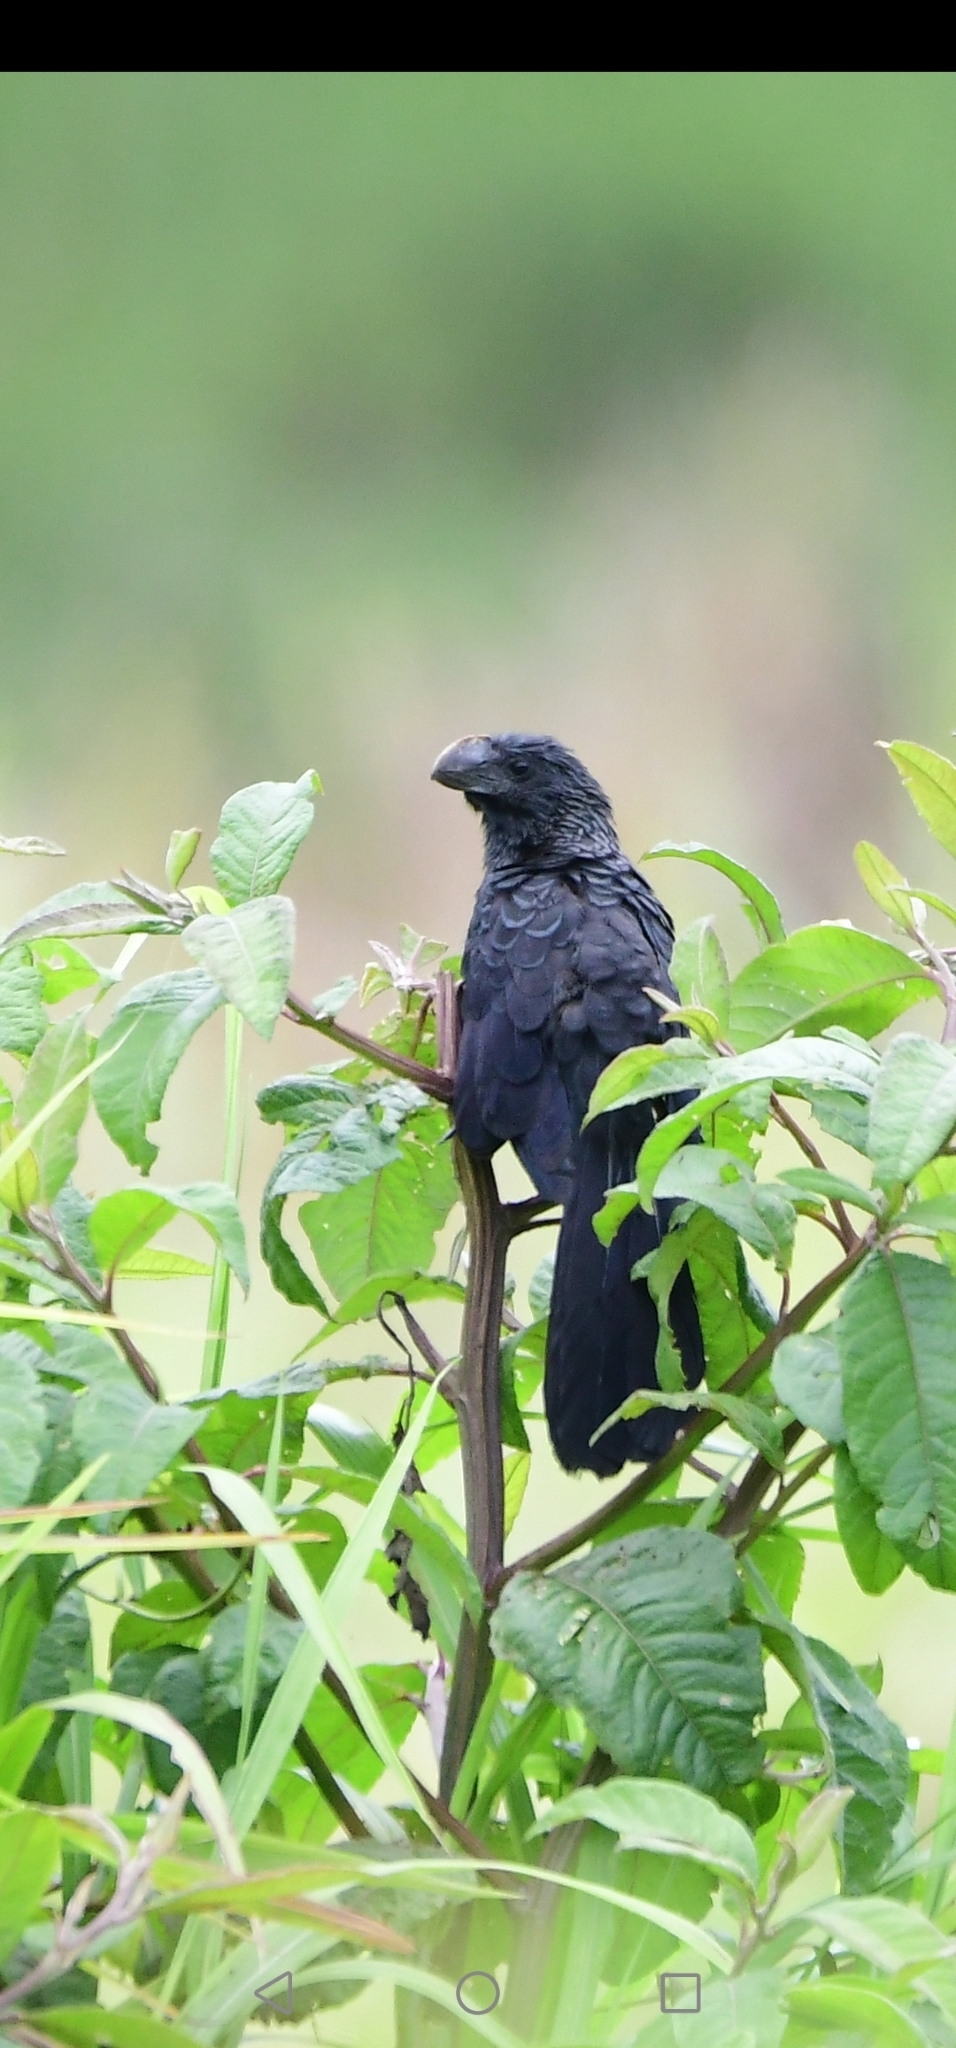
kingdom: Animalia
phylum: Chordata
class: Aves
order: Cuculiformes
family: Cuculidae
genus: Crotophaga
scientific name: Crotophaga ani
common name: Smooth-billed ani
